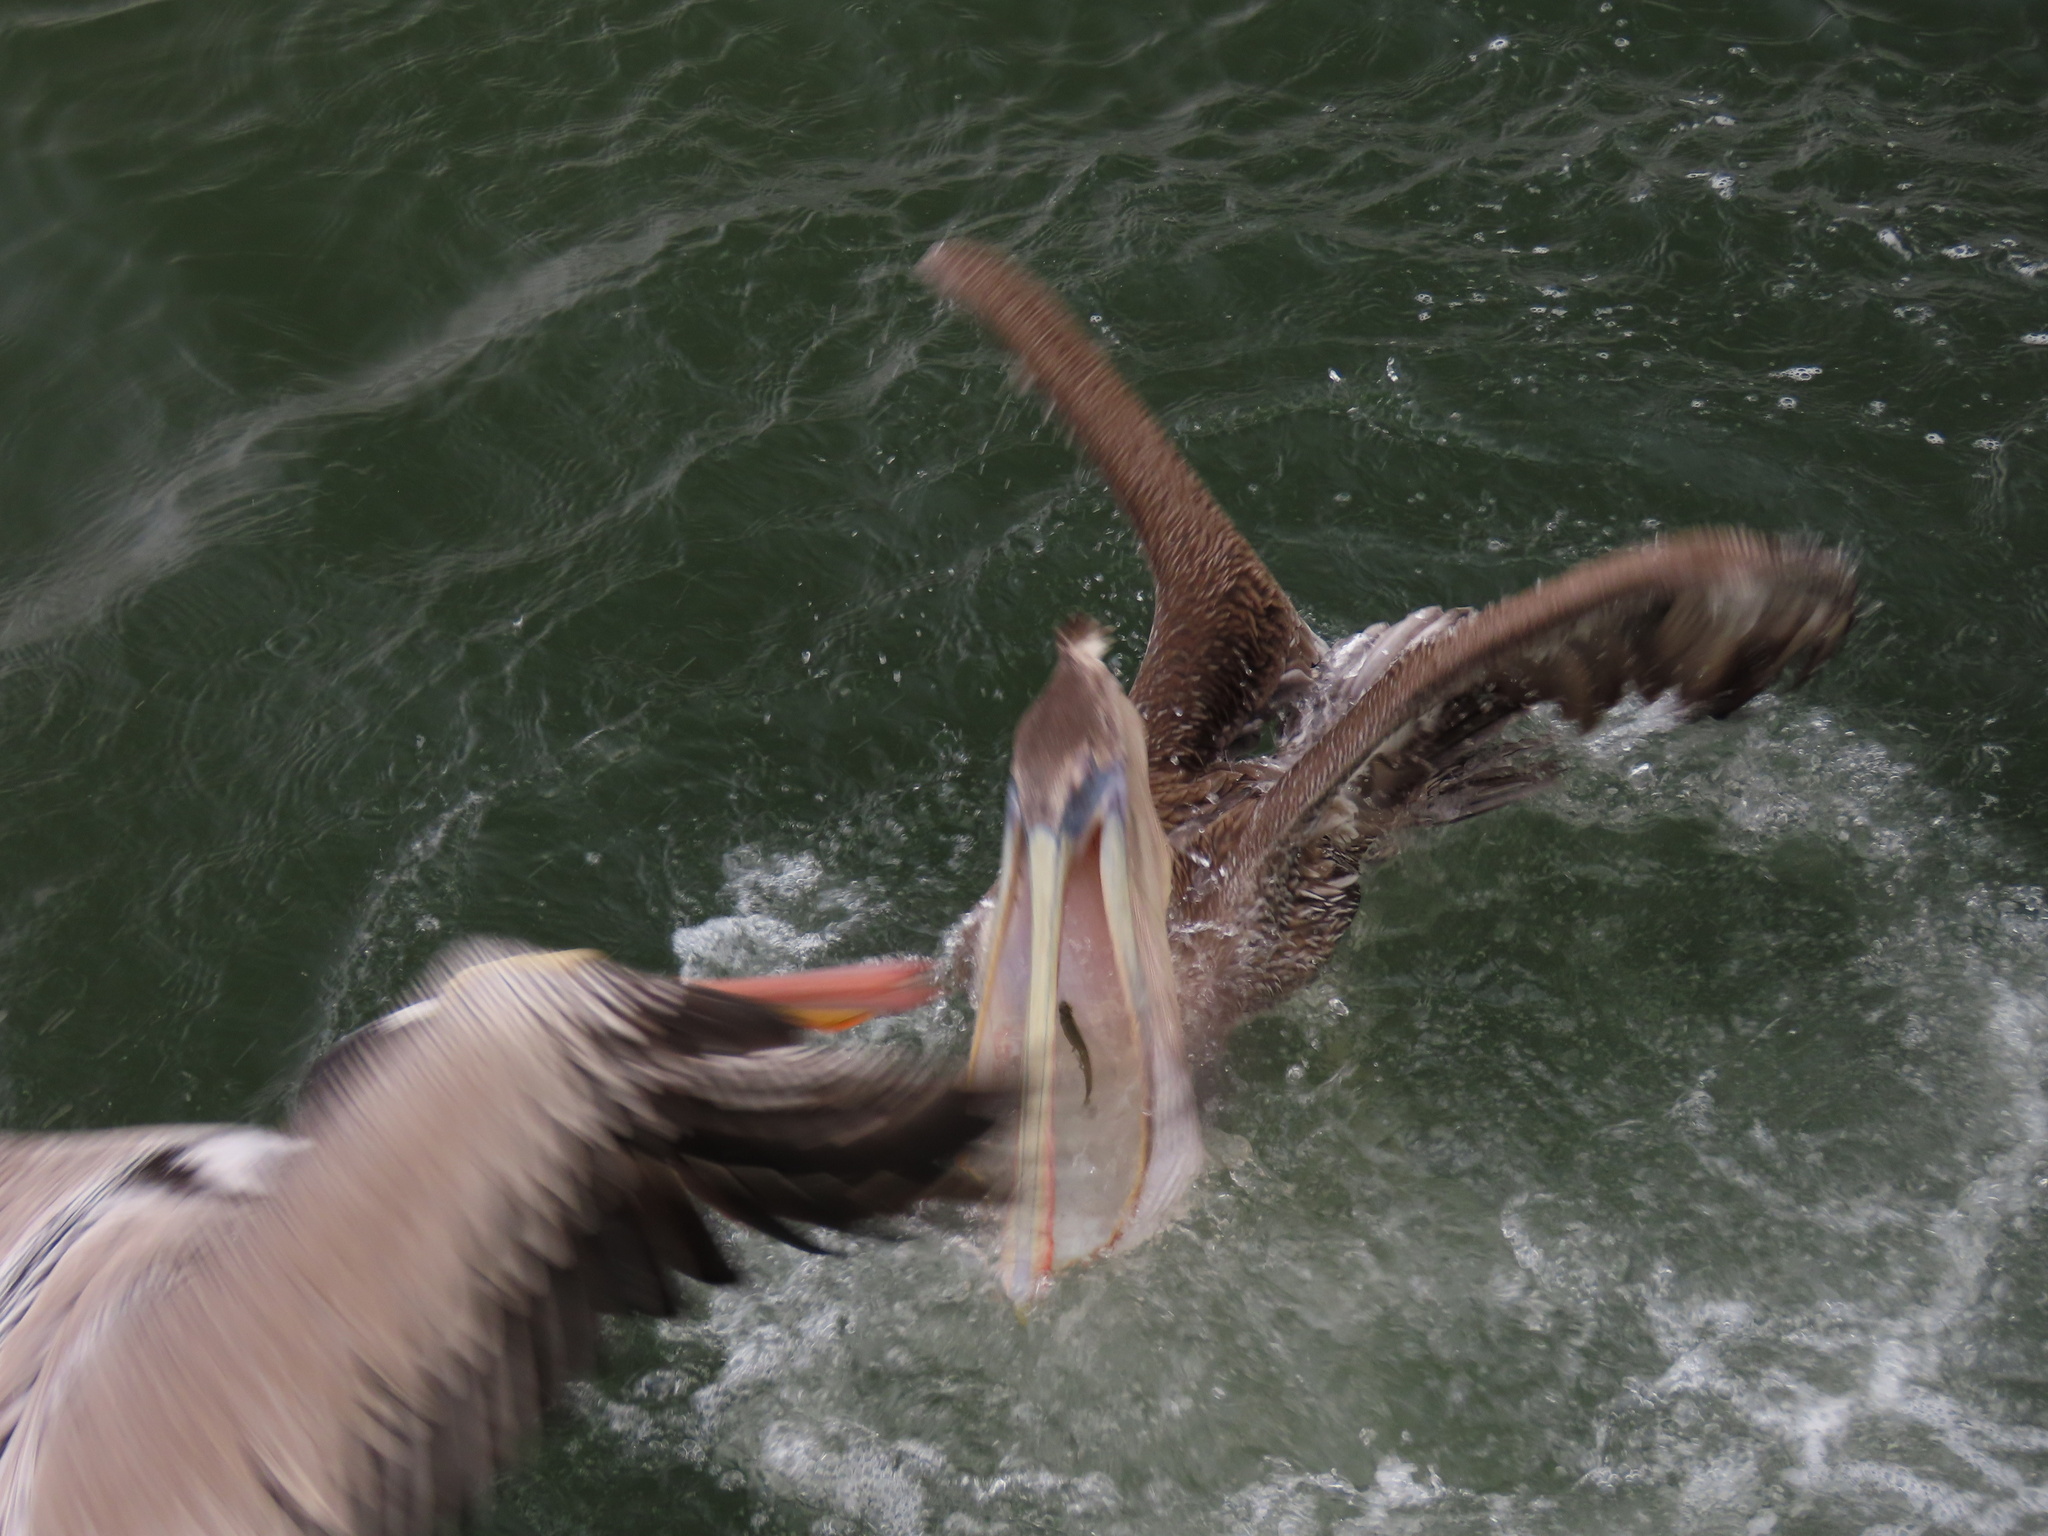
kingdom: Animalia
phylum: Chordata
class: Aves
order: Pelecaniformes
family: Pelecanidae
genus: Pelecanus
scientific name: Pelecanus occidentalis
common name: Brown pelican
